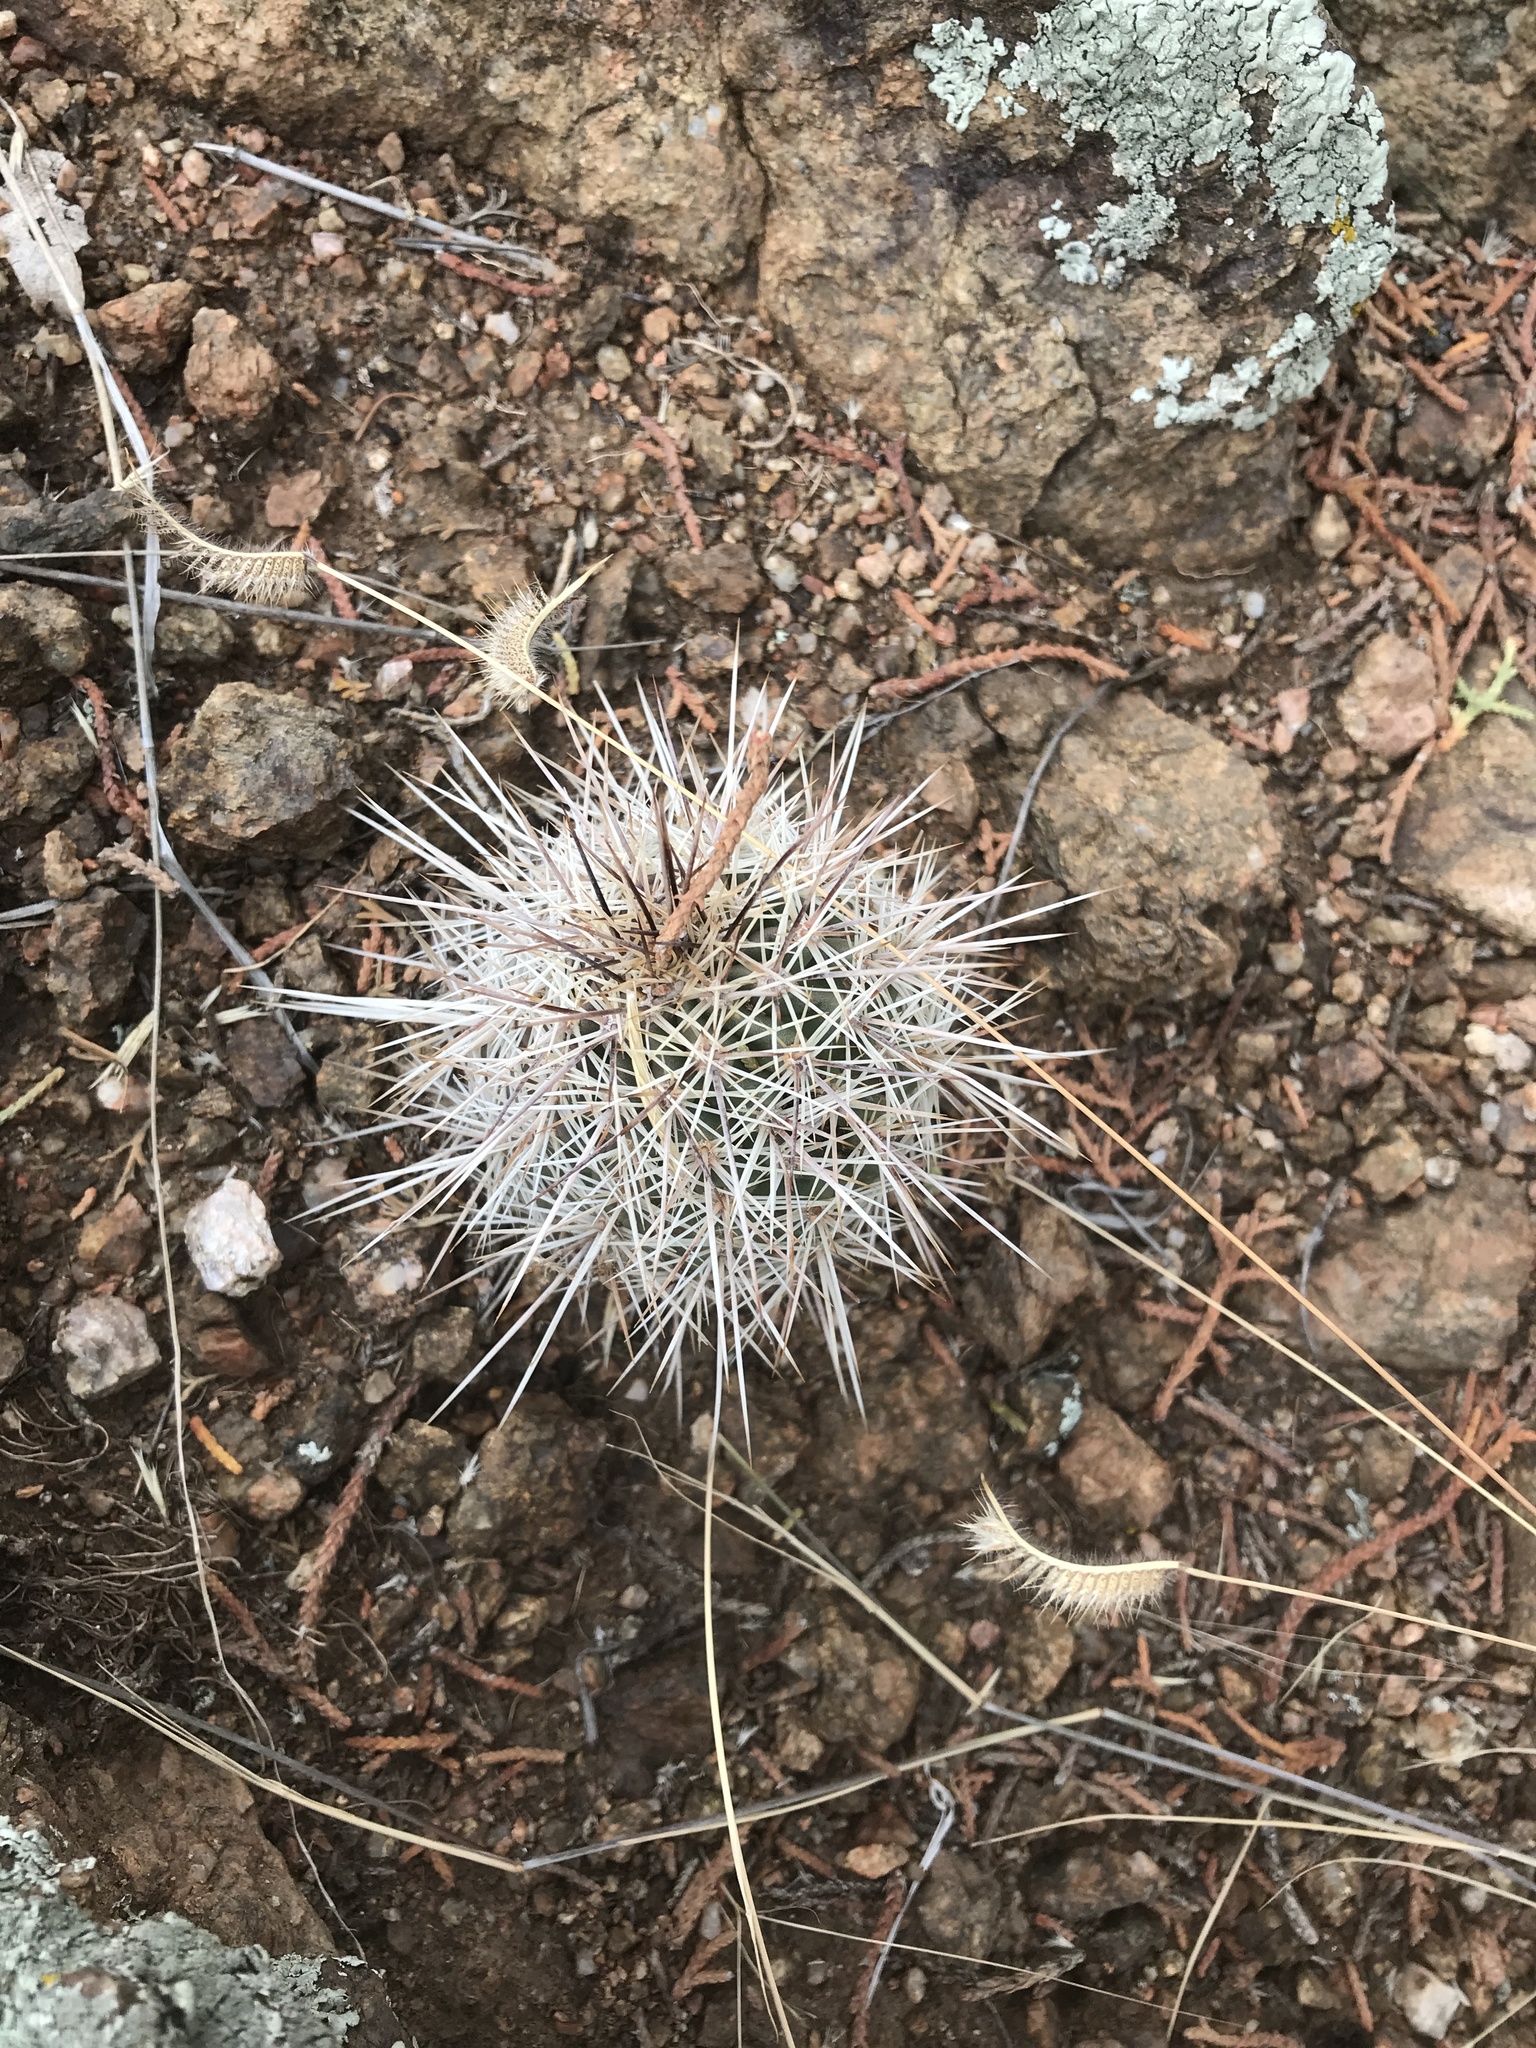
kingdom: Plantae
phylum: Tracheophyta
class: Magnoliopsida
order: Caryophyllales
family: Cactaceae
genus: Echinocereus
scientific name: Echinocereus coccineus
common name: Scarlet hedgehog cactus
